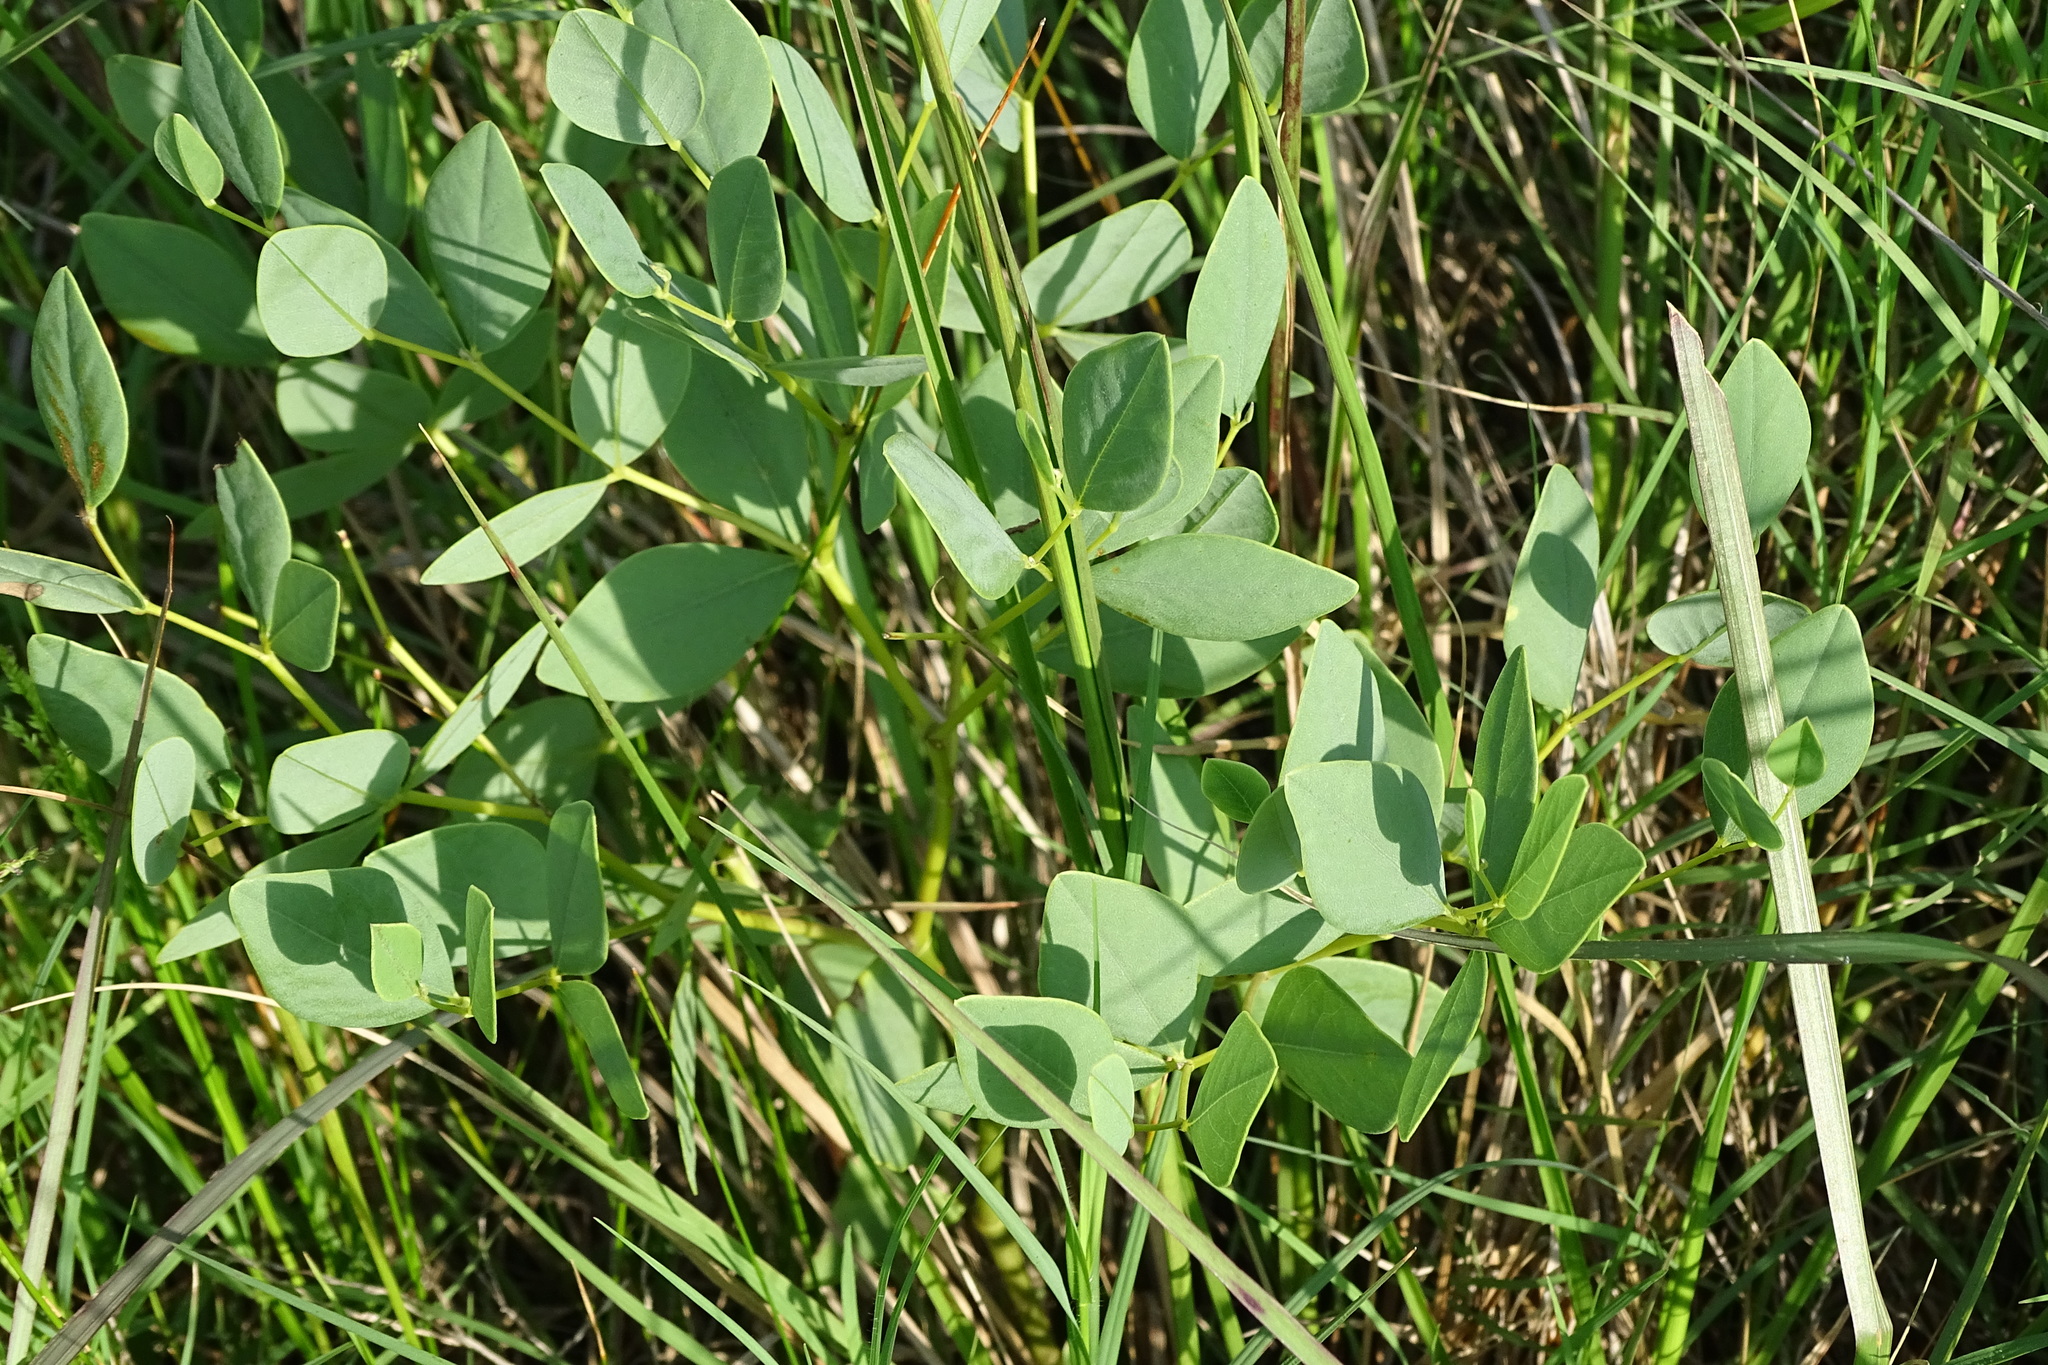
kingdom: Plantae
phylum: Tracheophyta
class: Magnoliopsida
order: Fabales
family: Fabaceae
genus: Baptisia
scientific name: Baptisia sphaerocarpa
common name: Round wild indigo
